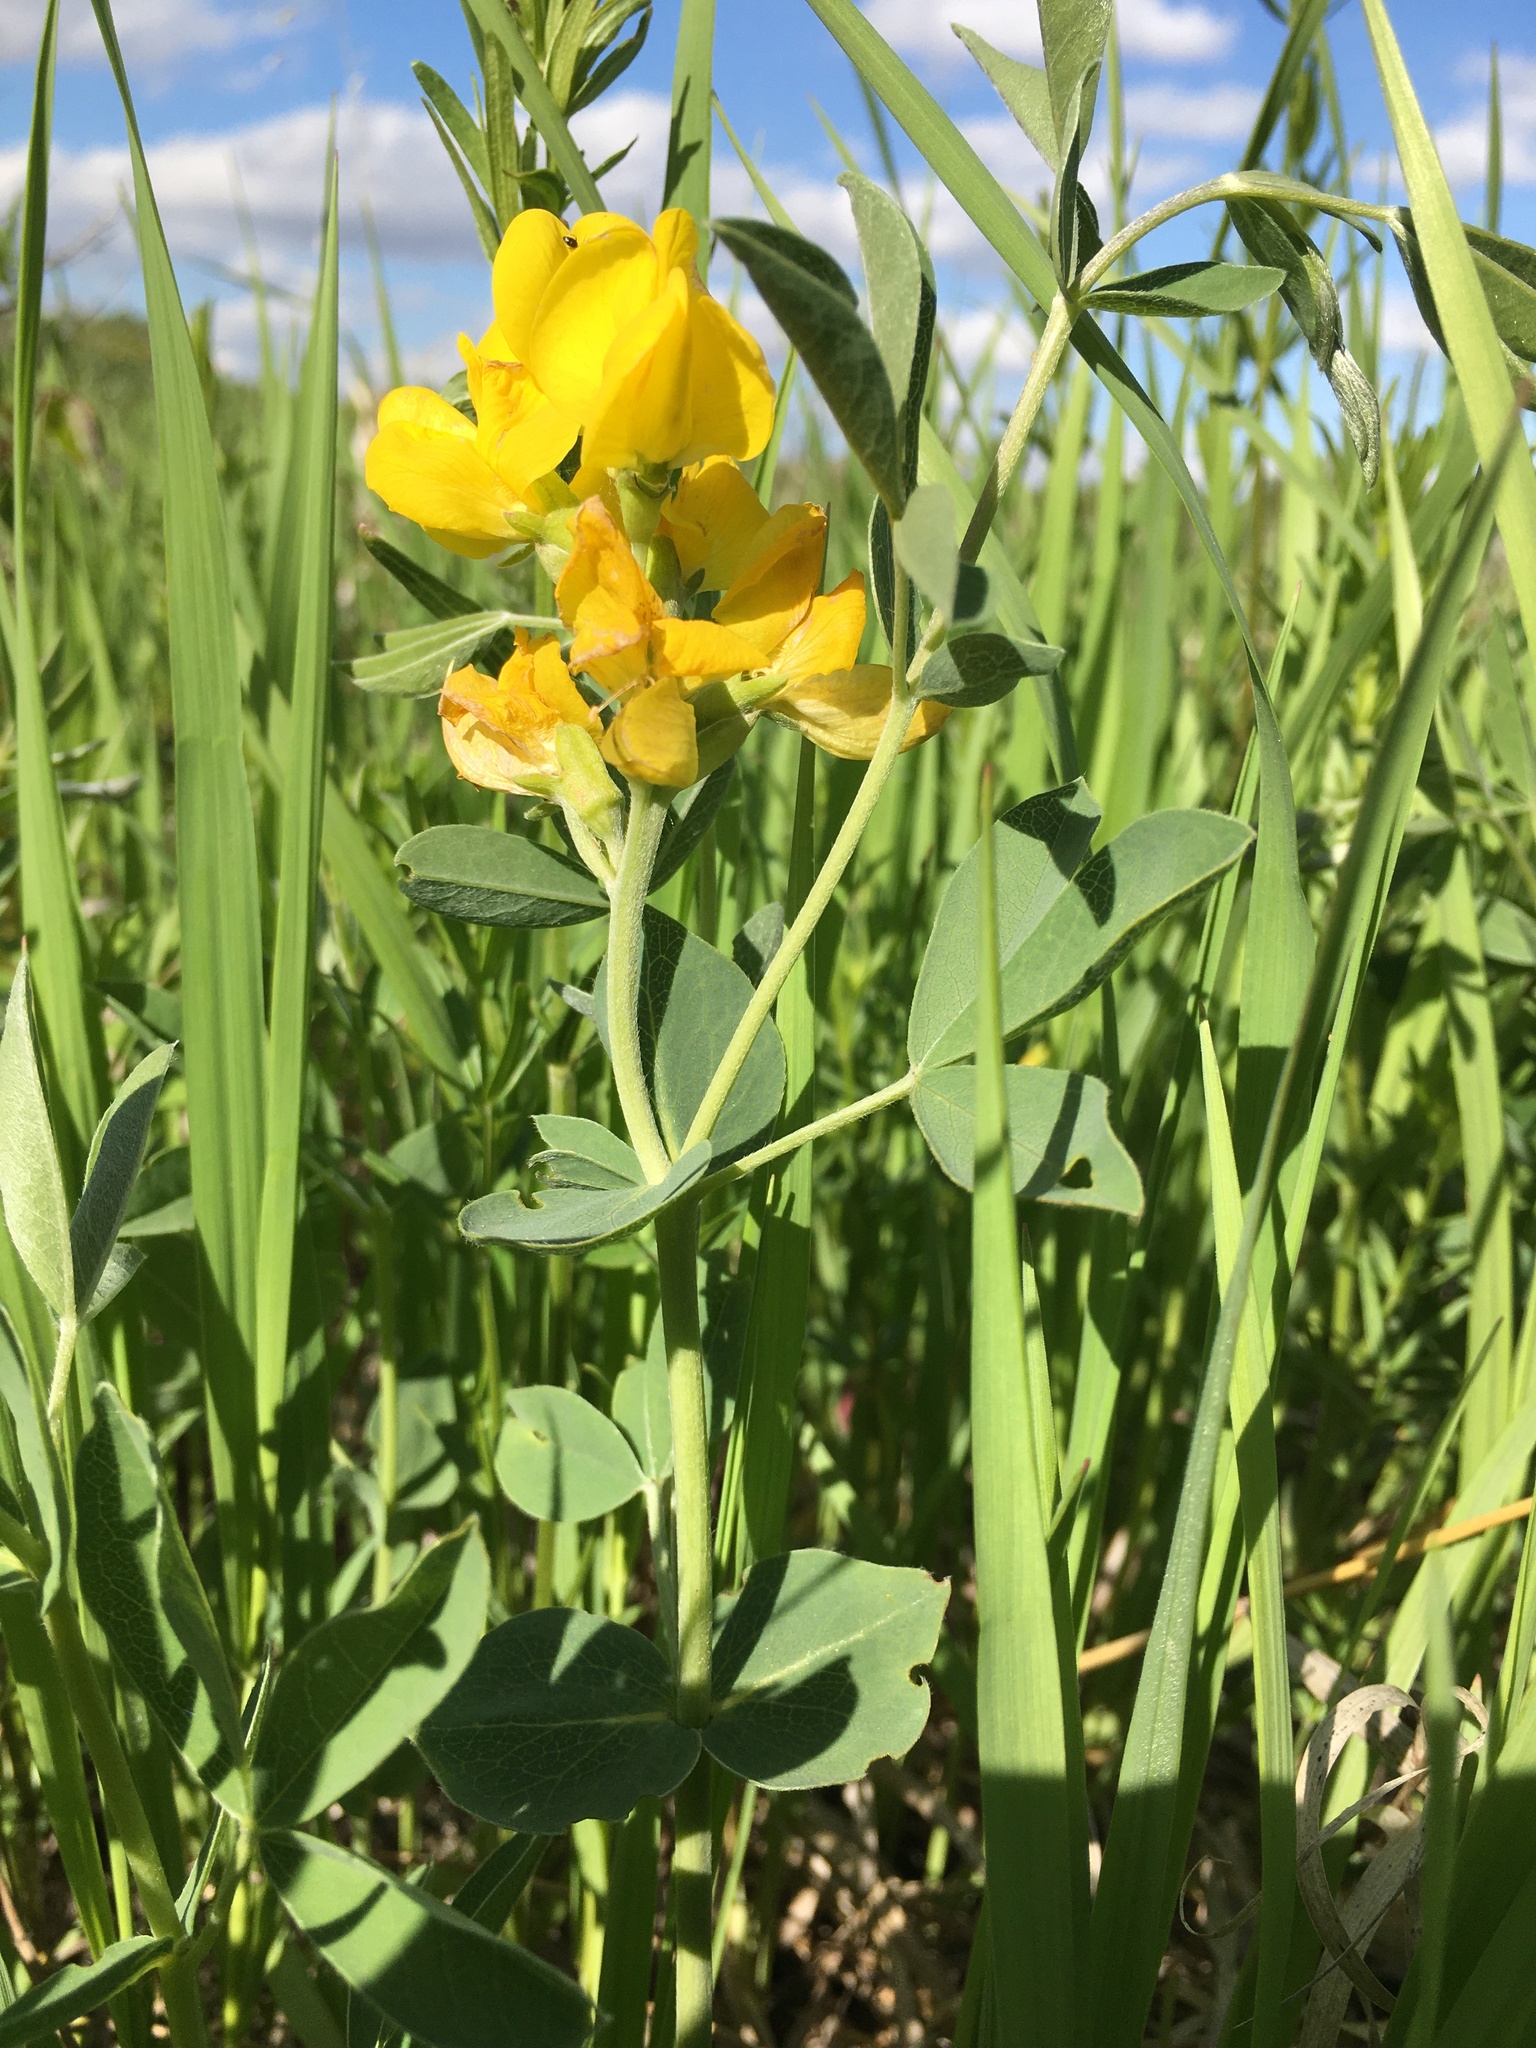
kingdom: Plantae
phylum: Tracheophyta
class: Magnoliopsida
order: Fabales
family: Fabaceae
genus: Thermopsis
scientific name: Thermopsis rhombifolia
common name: Circle-pod-pea
